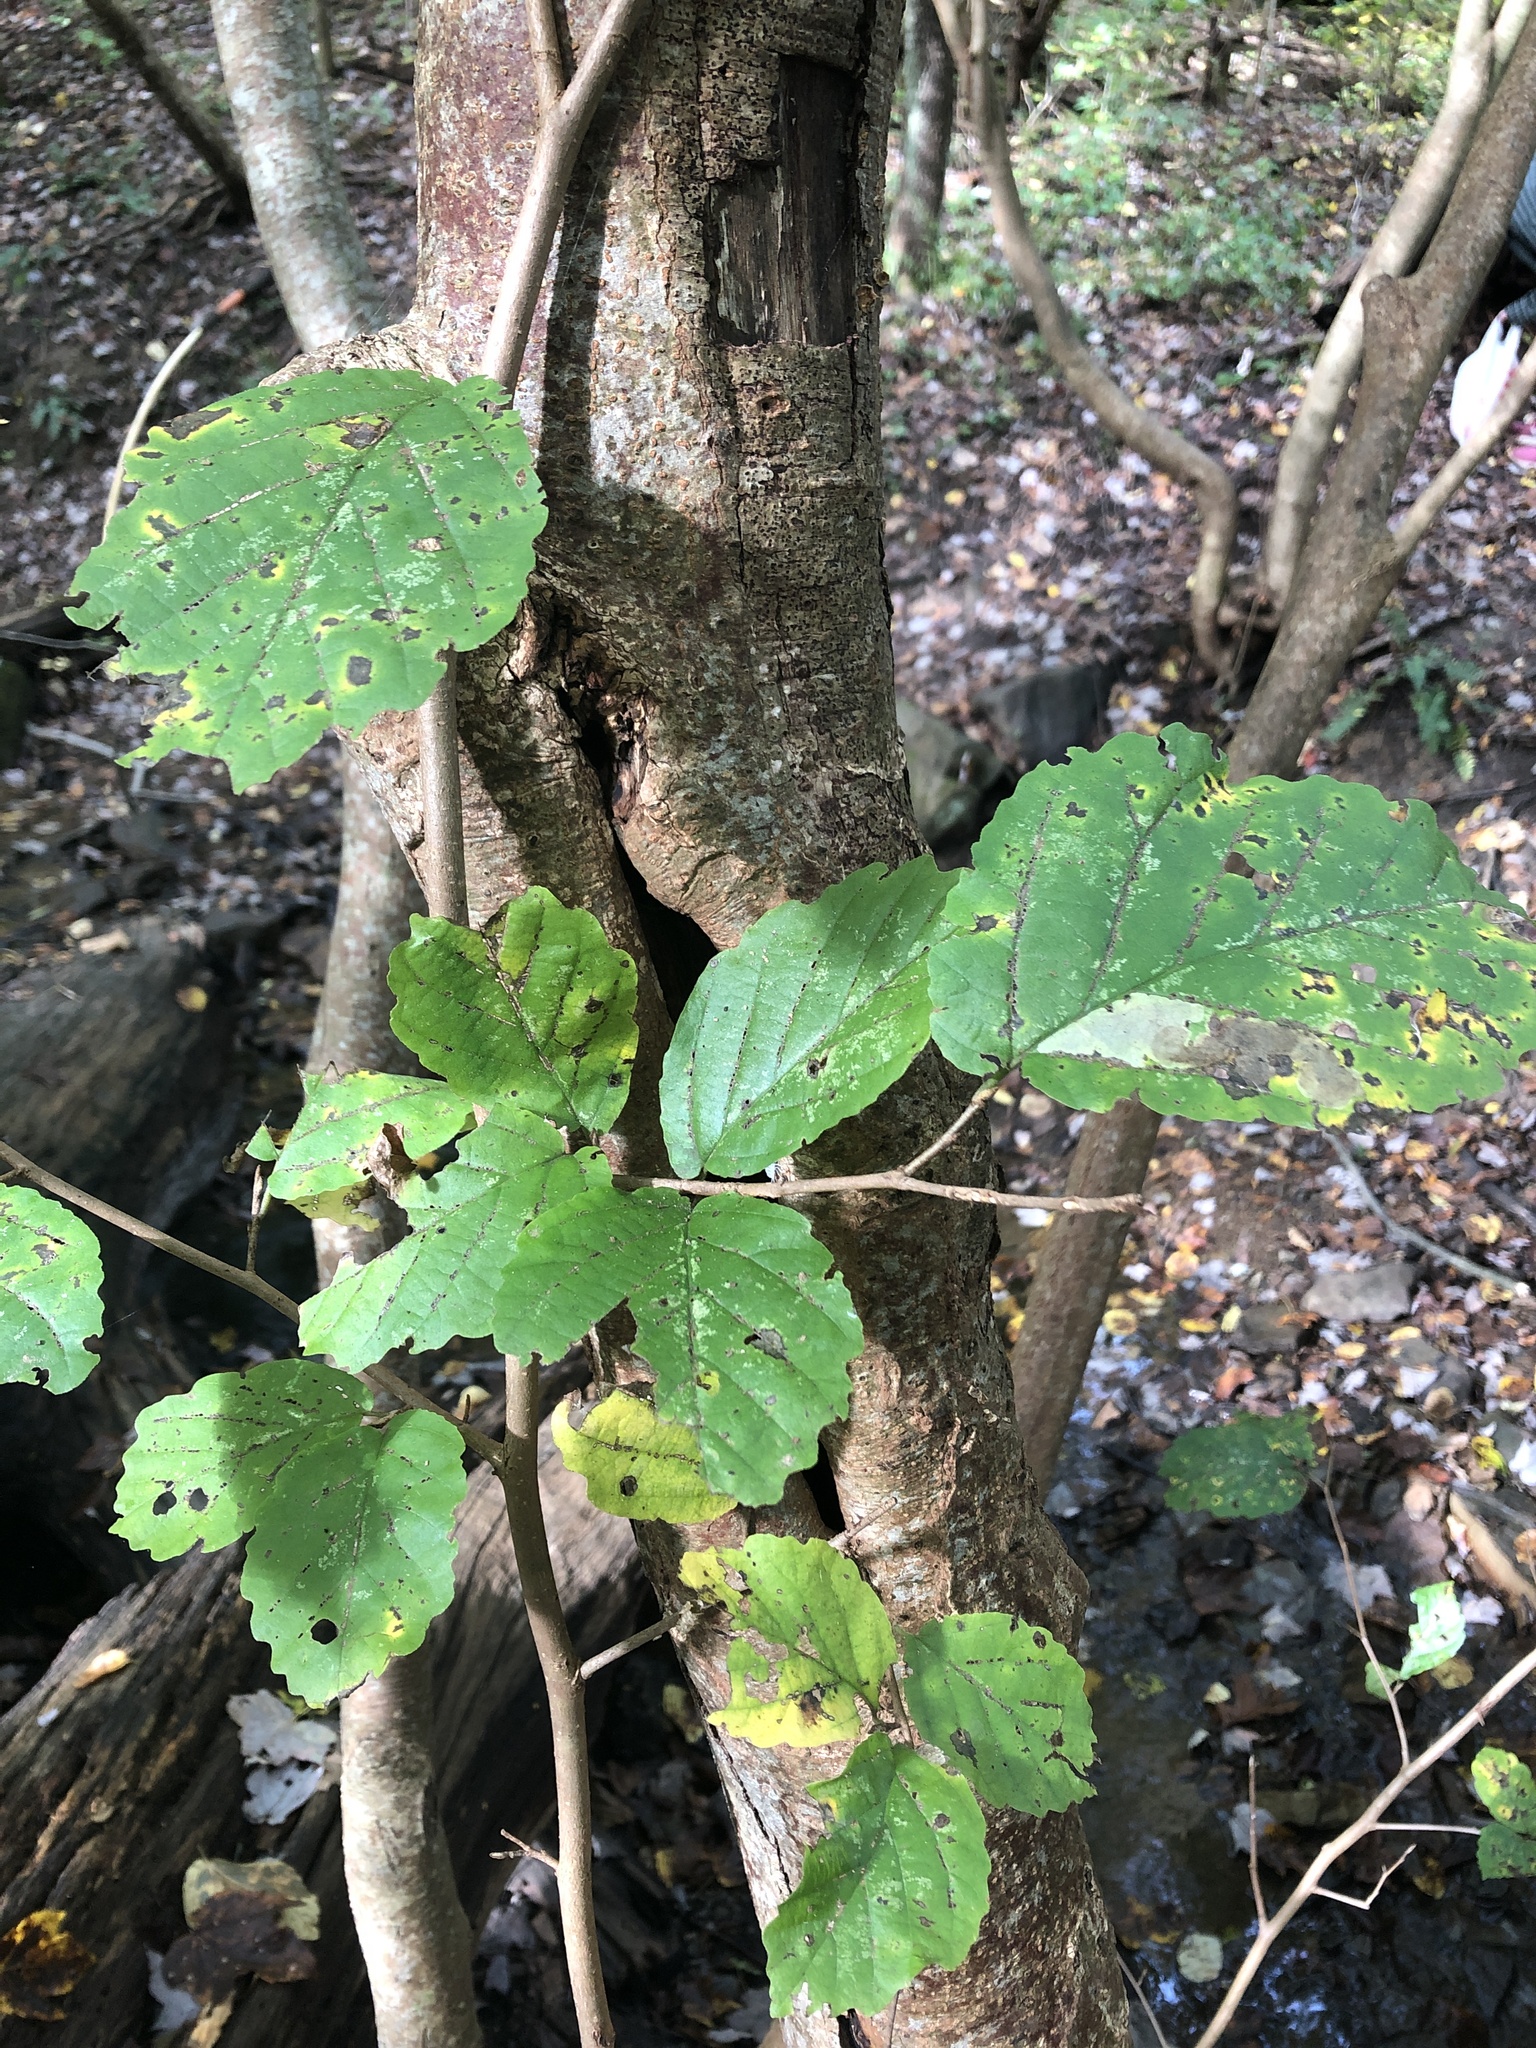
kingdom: Plantae
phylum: Tracheophyta
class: Magnoliopsida
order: Saxifragales
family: Hamamelidaceae
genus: Hamamelis
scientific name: Hamamelis virginiana
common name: Witch-hazel
